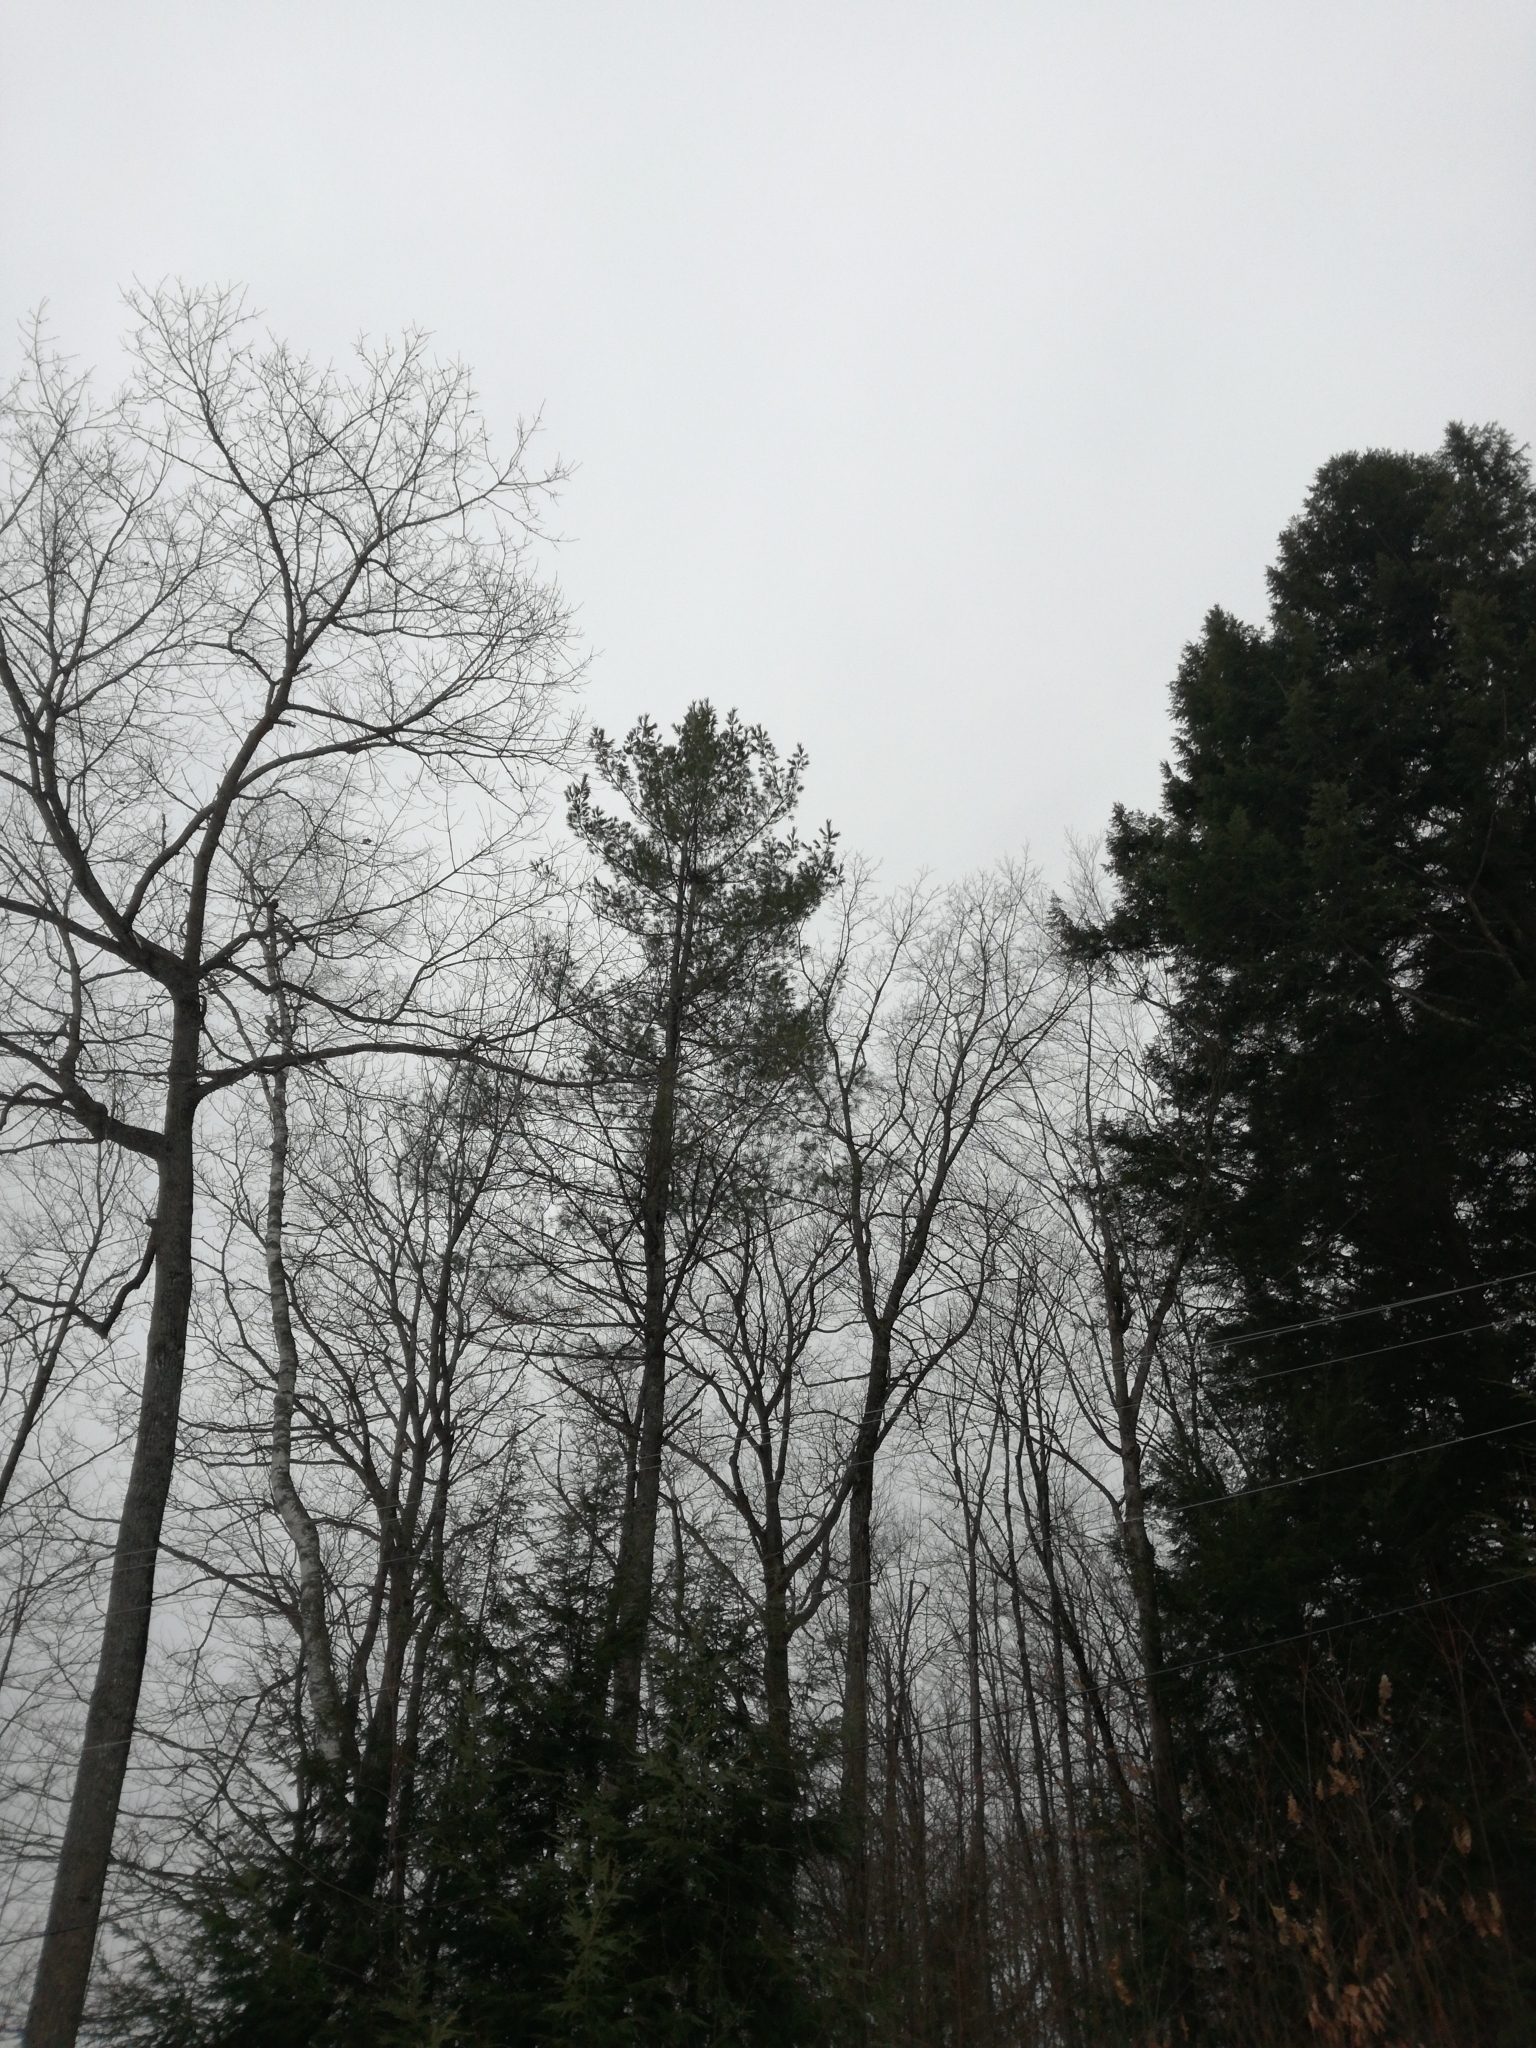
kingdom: Plantae
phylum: Tracheophyta
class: Pinopsida
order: Pinales
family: Pinaceae
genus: Pinus
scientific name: Pinus strobus
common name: Weymouth pine
